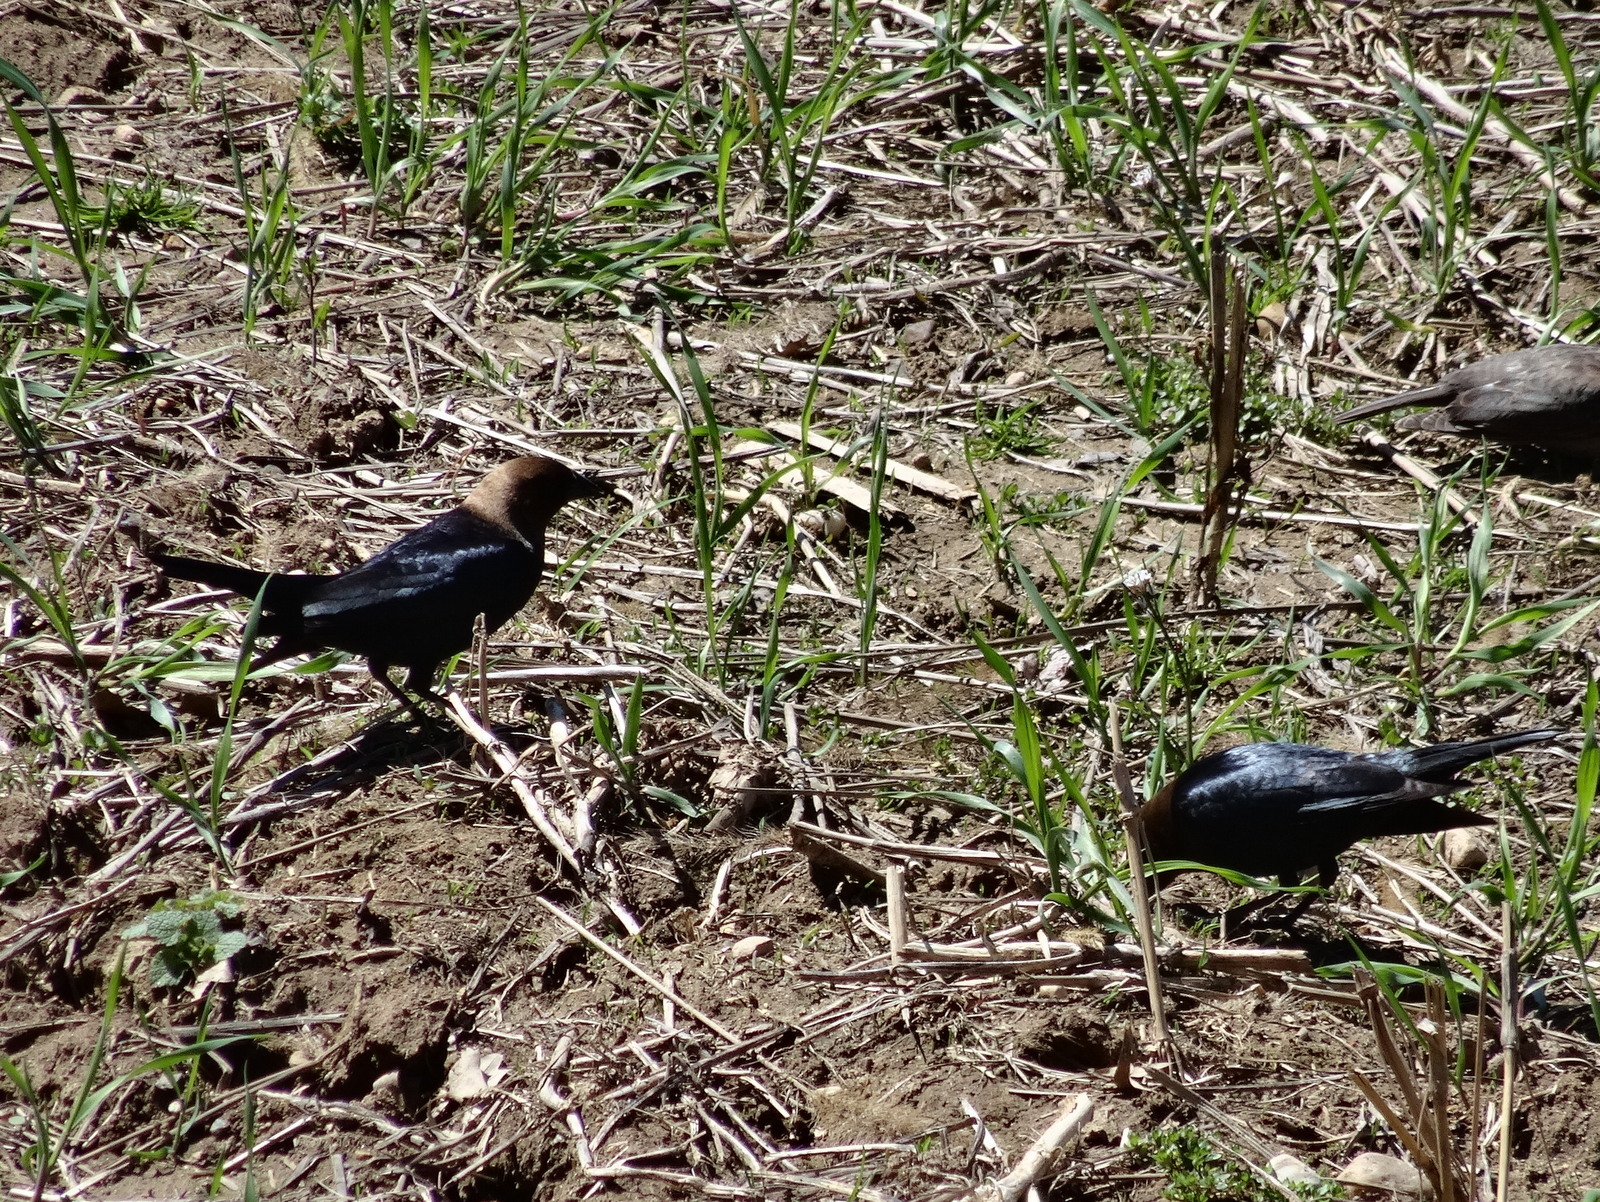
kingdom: Animalia
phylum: Chordata
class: Aves
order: Passeriformes
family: Icteridae
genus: Molothrus
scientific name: Molothrus ater
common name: Brown-headed cowbird
